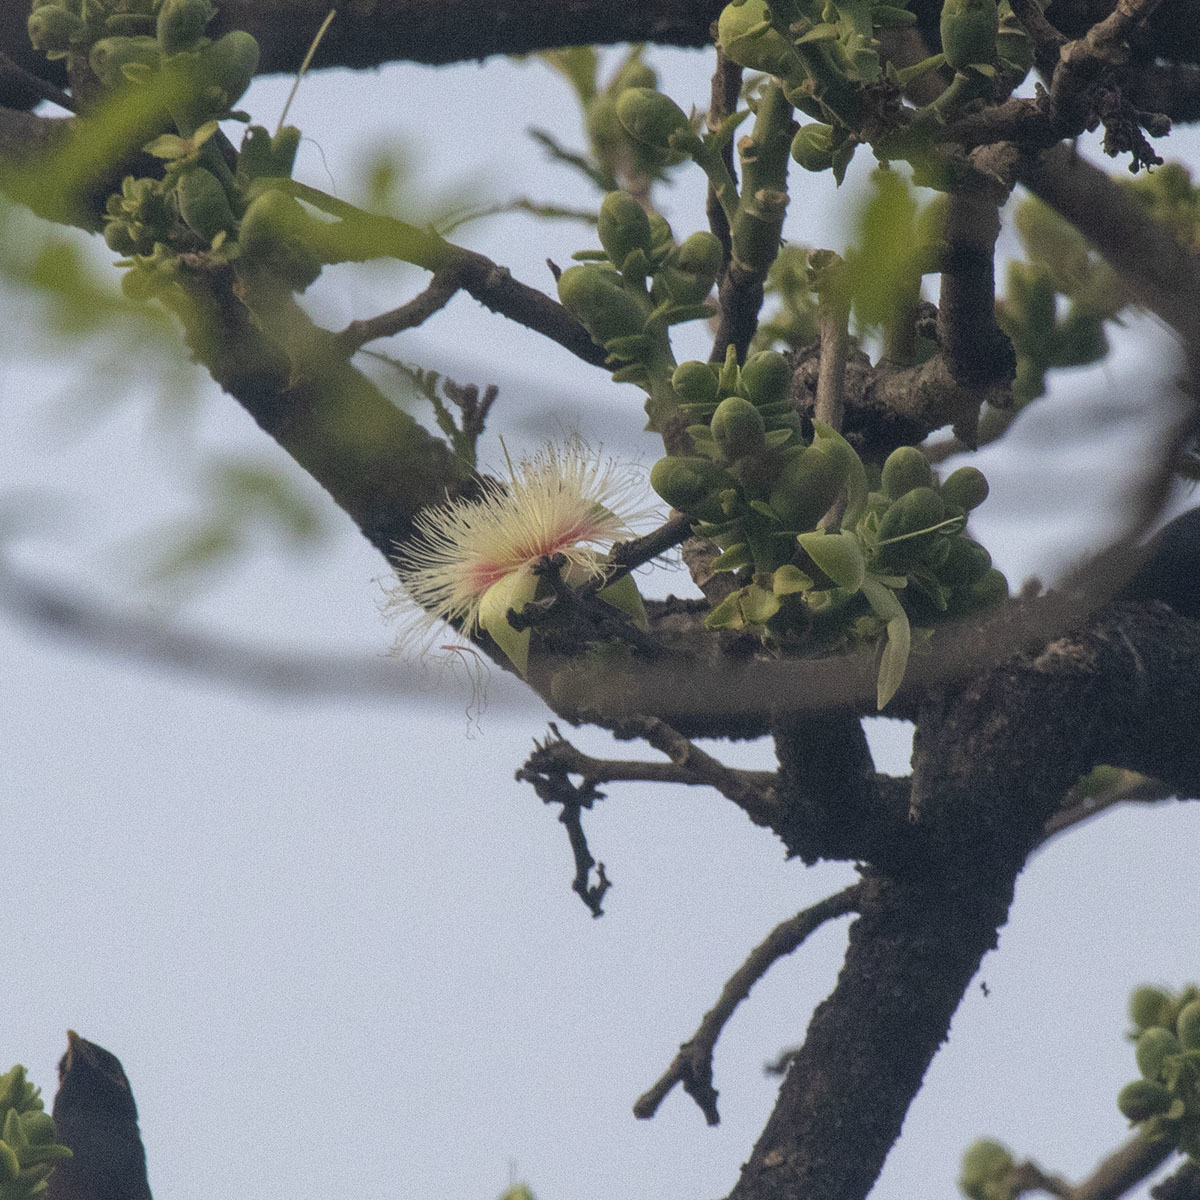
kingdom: Plantae
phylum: Tracheophyta
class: Magnoliopsida
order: Ericales
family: Lecythidaceae
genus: Careya
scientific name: Careya arborea
